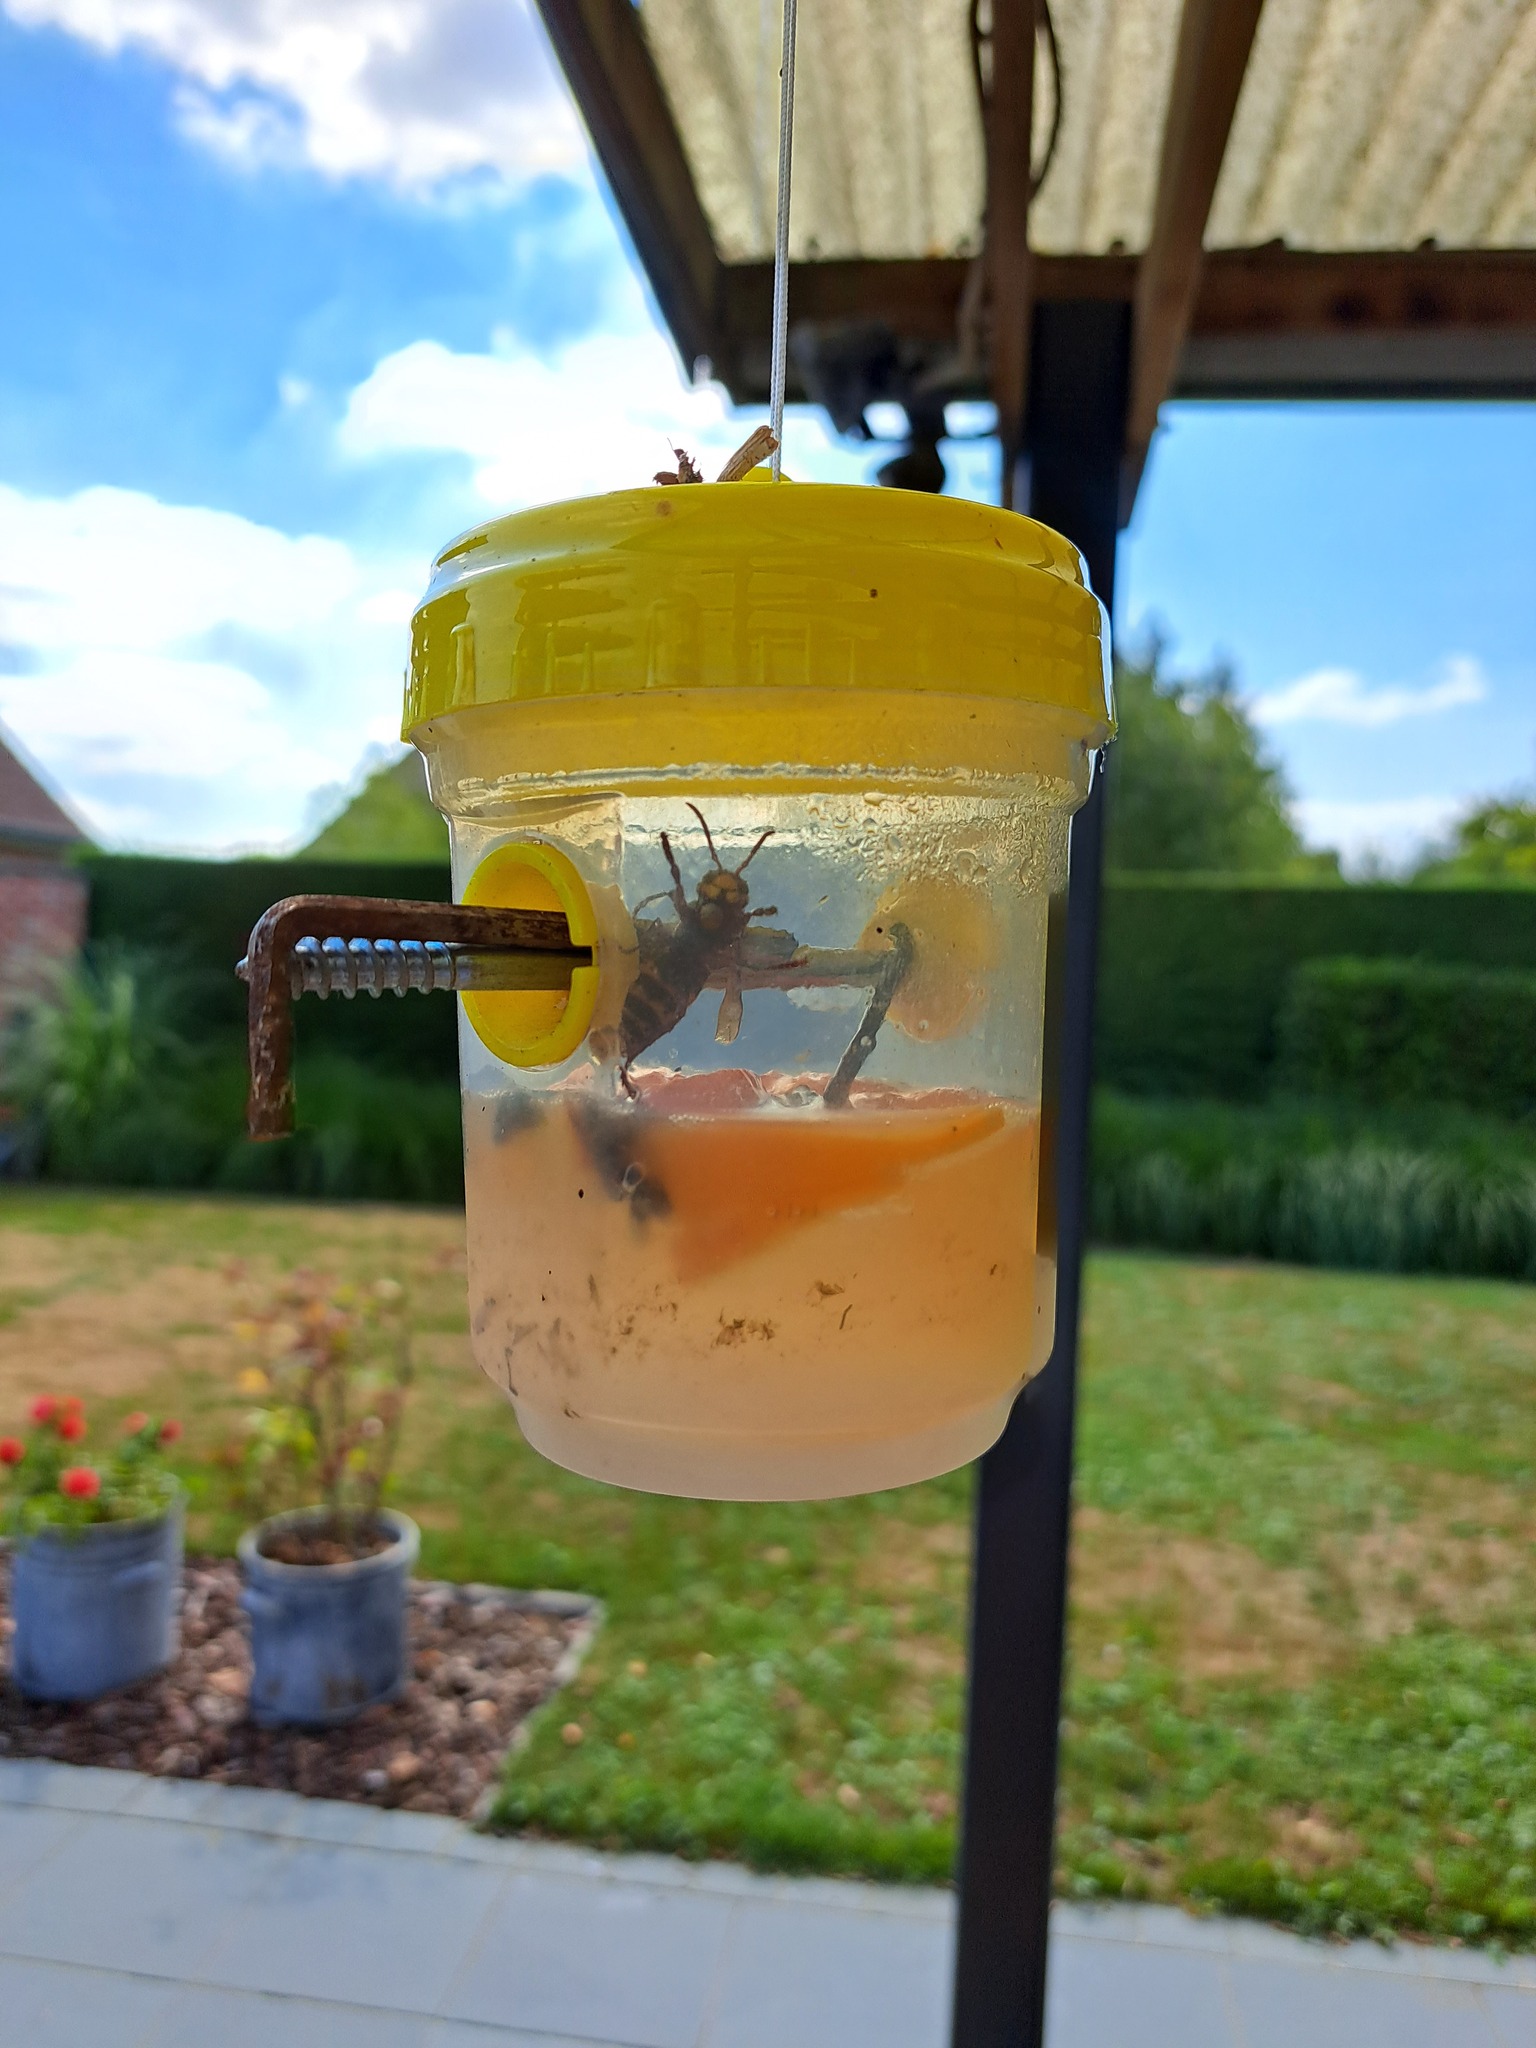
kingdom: Animalia
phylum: Arthropoda
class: Insecta
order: Hymenoptera
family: Vespidae
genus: Vespa
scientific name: Vespa crabro
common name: Hornet
